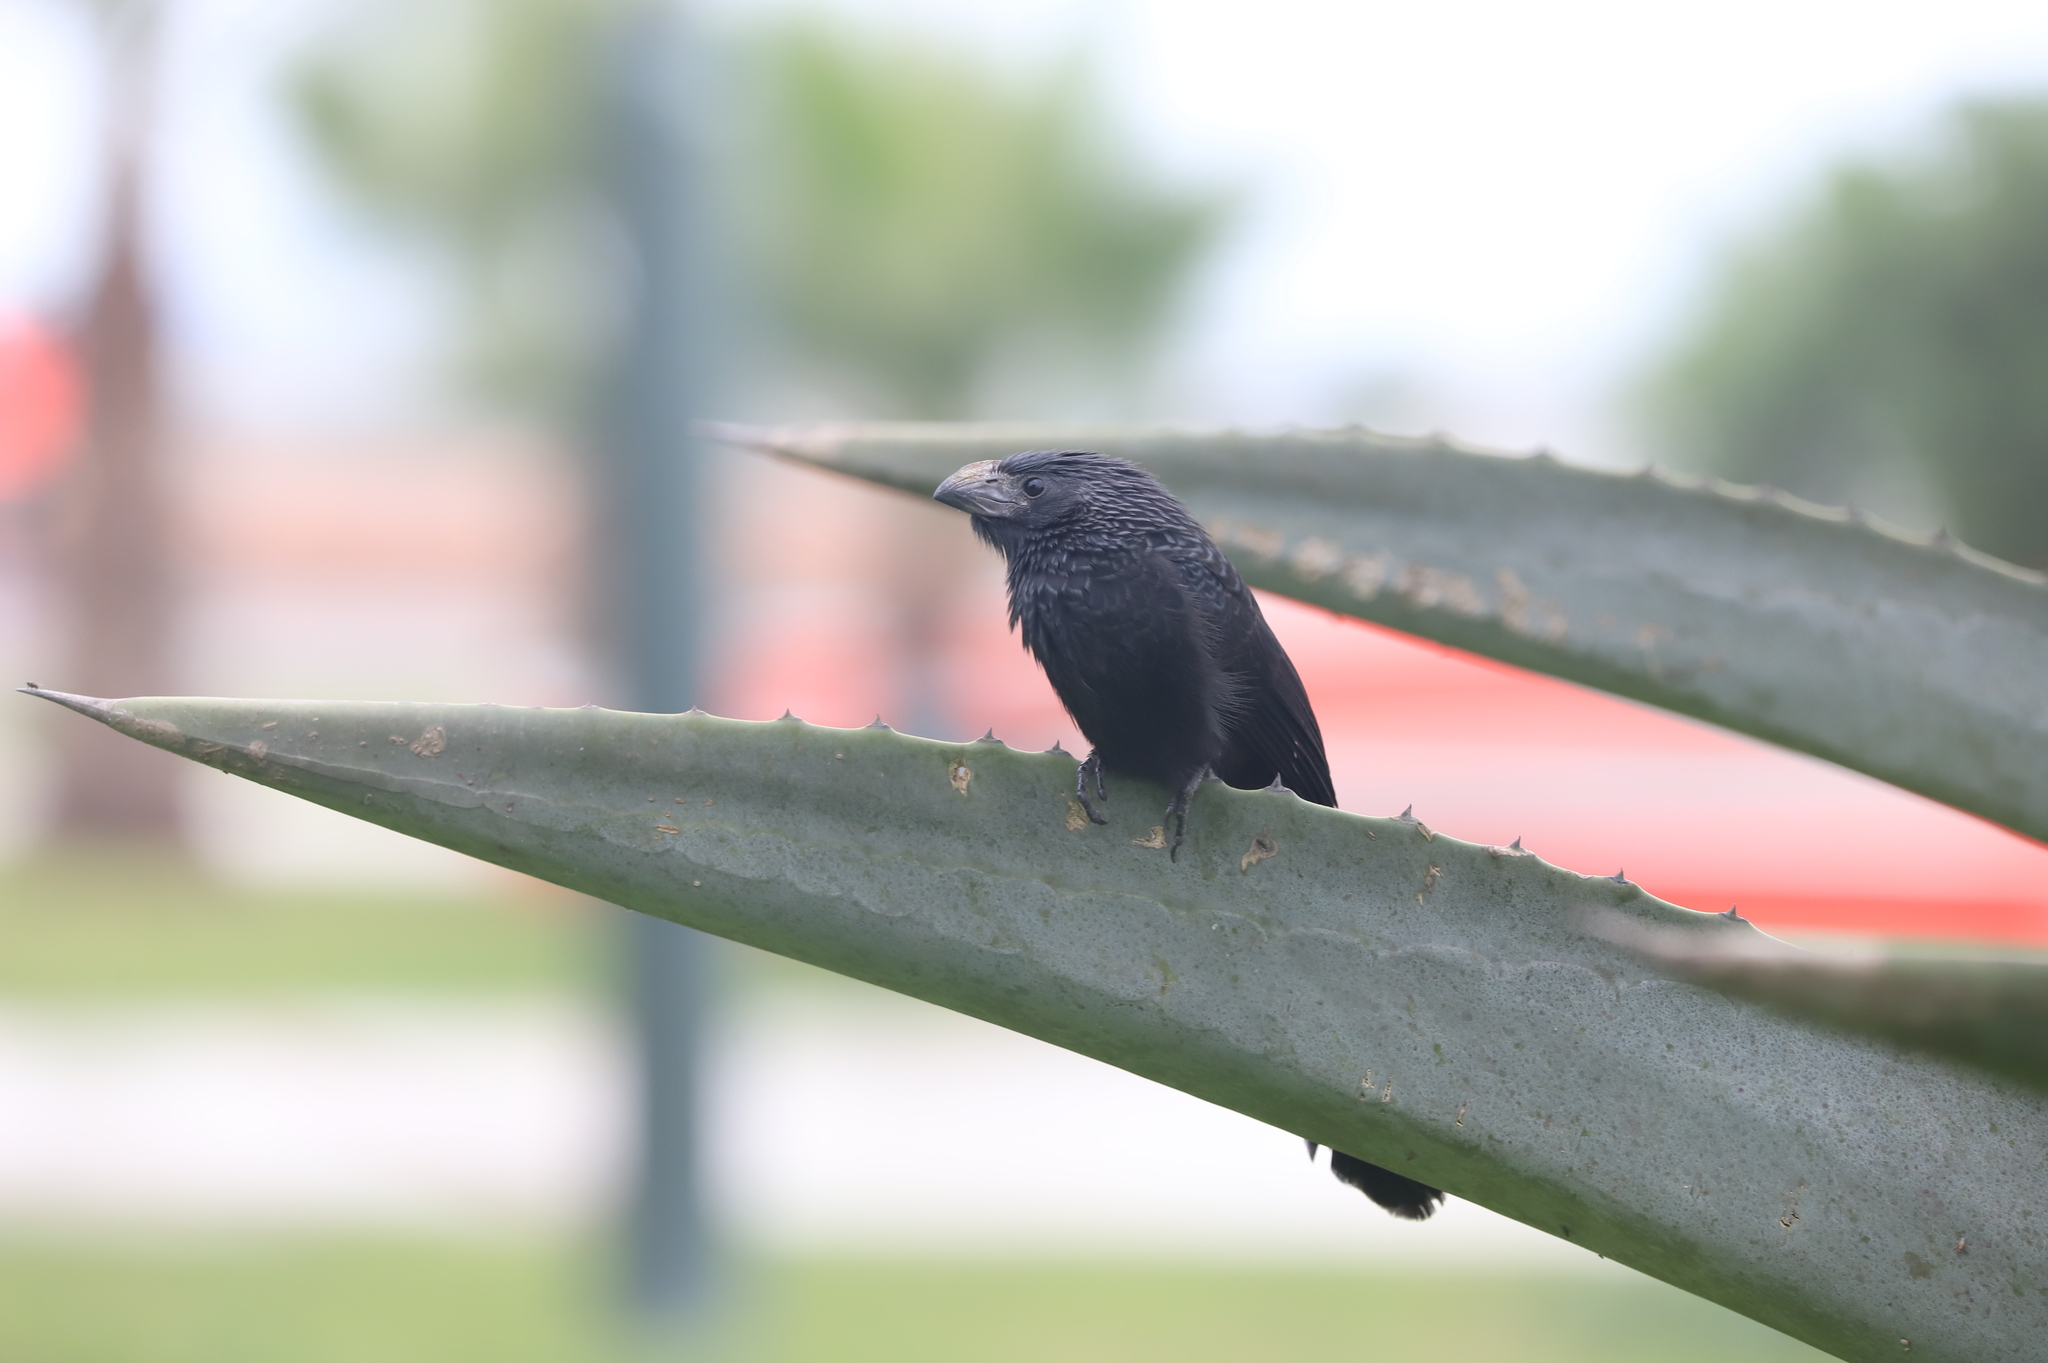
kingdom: Animalia
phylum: Chordata
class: Aves
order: Cuculiformes
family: Cuculidae
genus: Crotophaga
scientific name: Crotophaga sulcirostris
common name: Groove-billed ani
